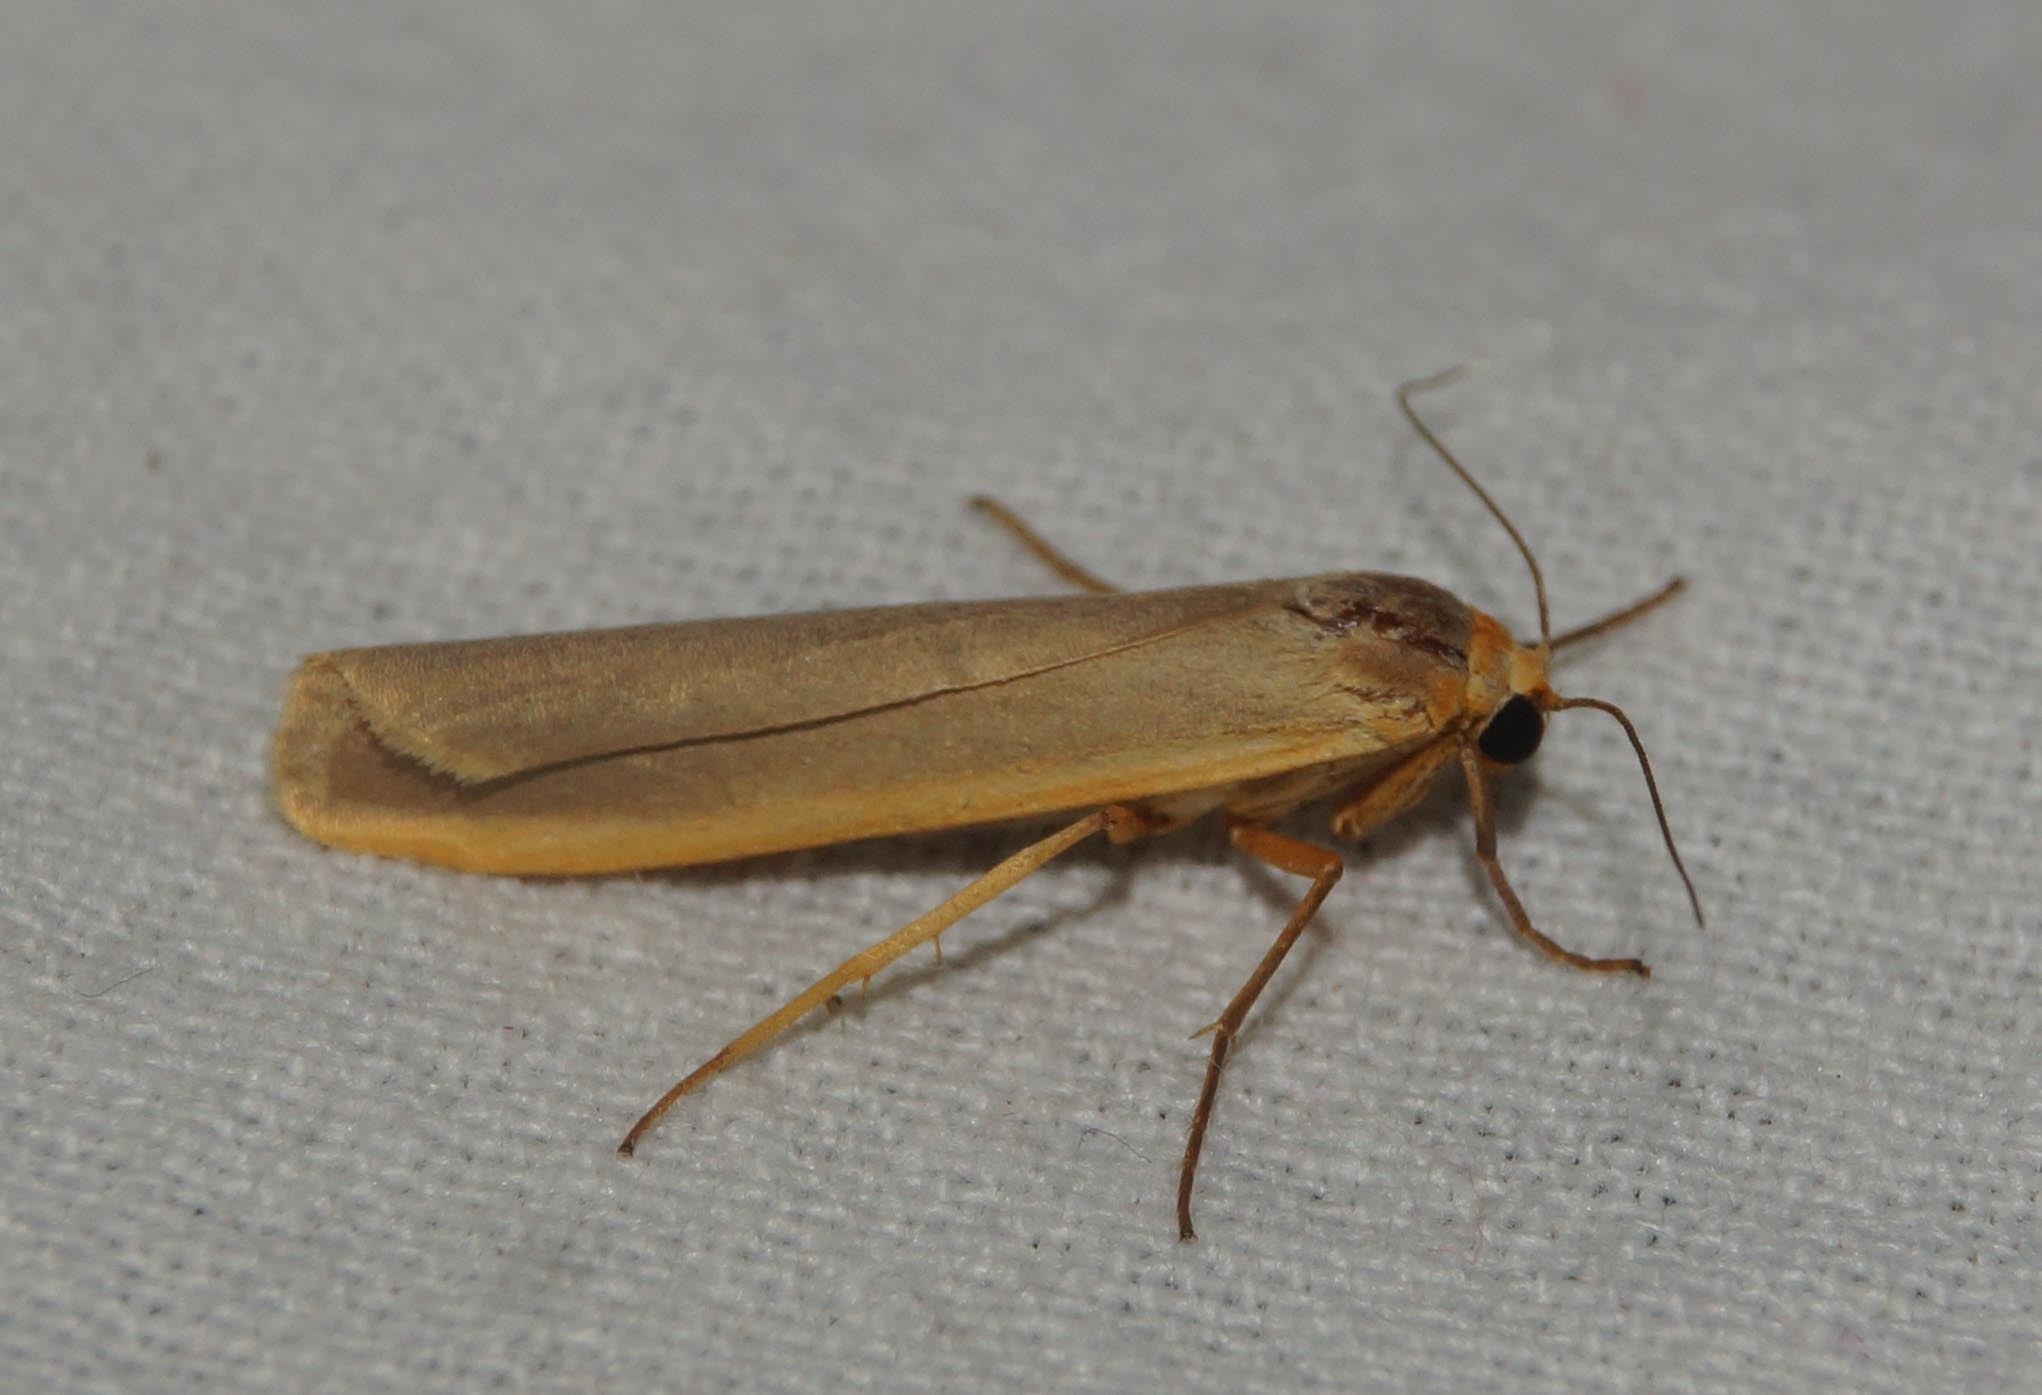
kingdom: Animalia
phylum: Arthropoda
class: Insecta
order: Lepidoptera
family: Erebidae
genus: Manulea
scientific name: Manulea complana
